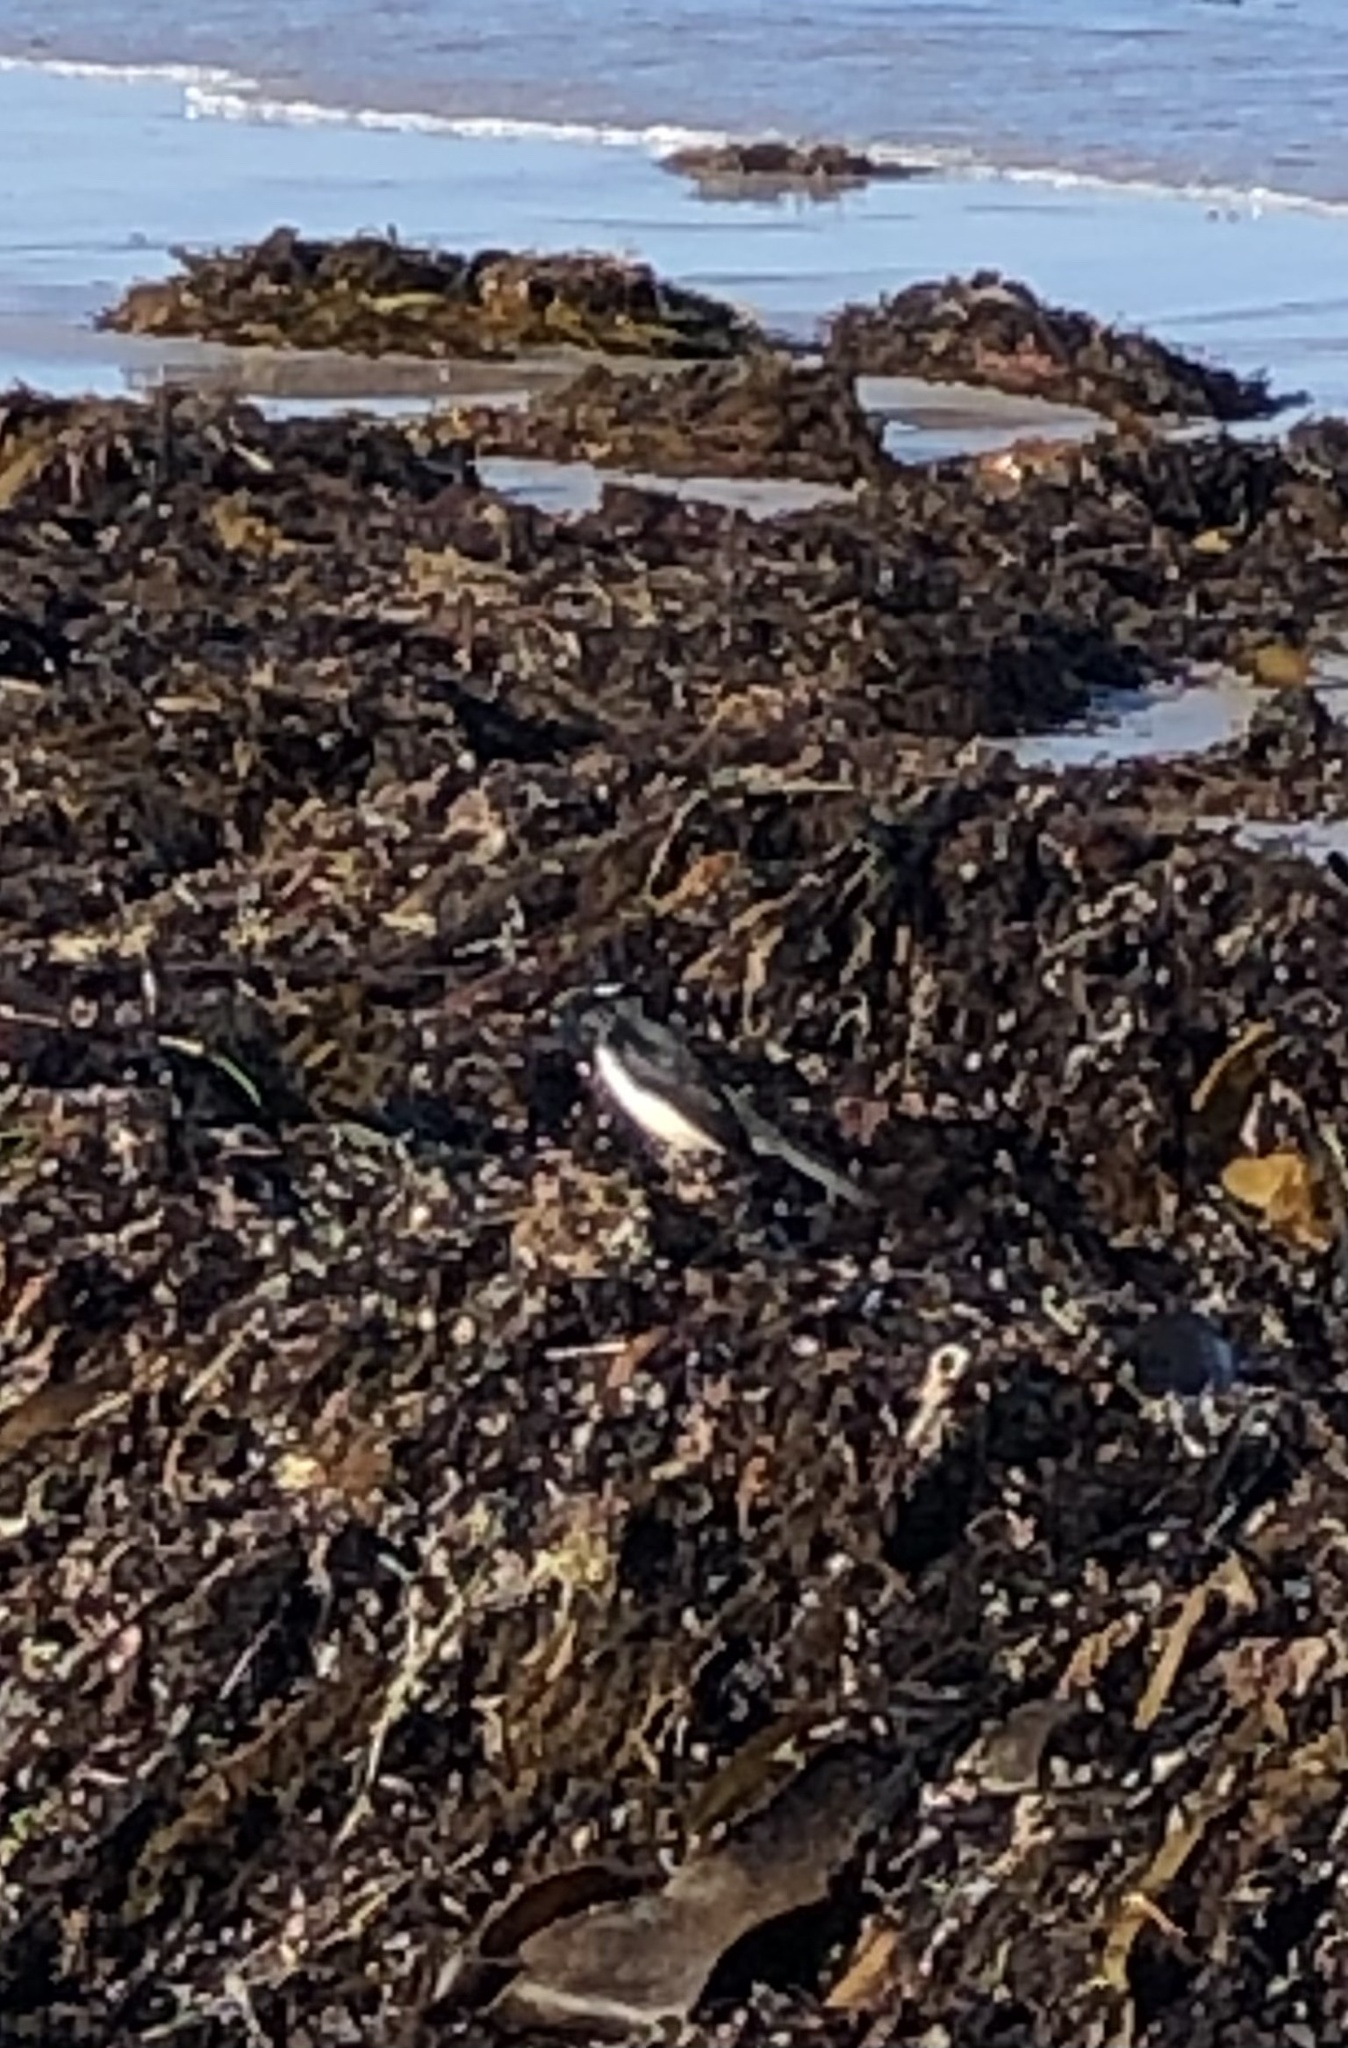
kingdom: Animalia
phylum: Chordata
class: Aves
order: Passeriformes
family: Rhipiduridae
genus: Rhipidura
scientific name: Rhipidura leucophrys
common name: Willie wagtail
